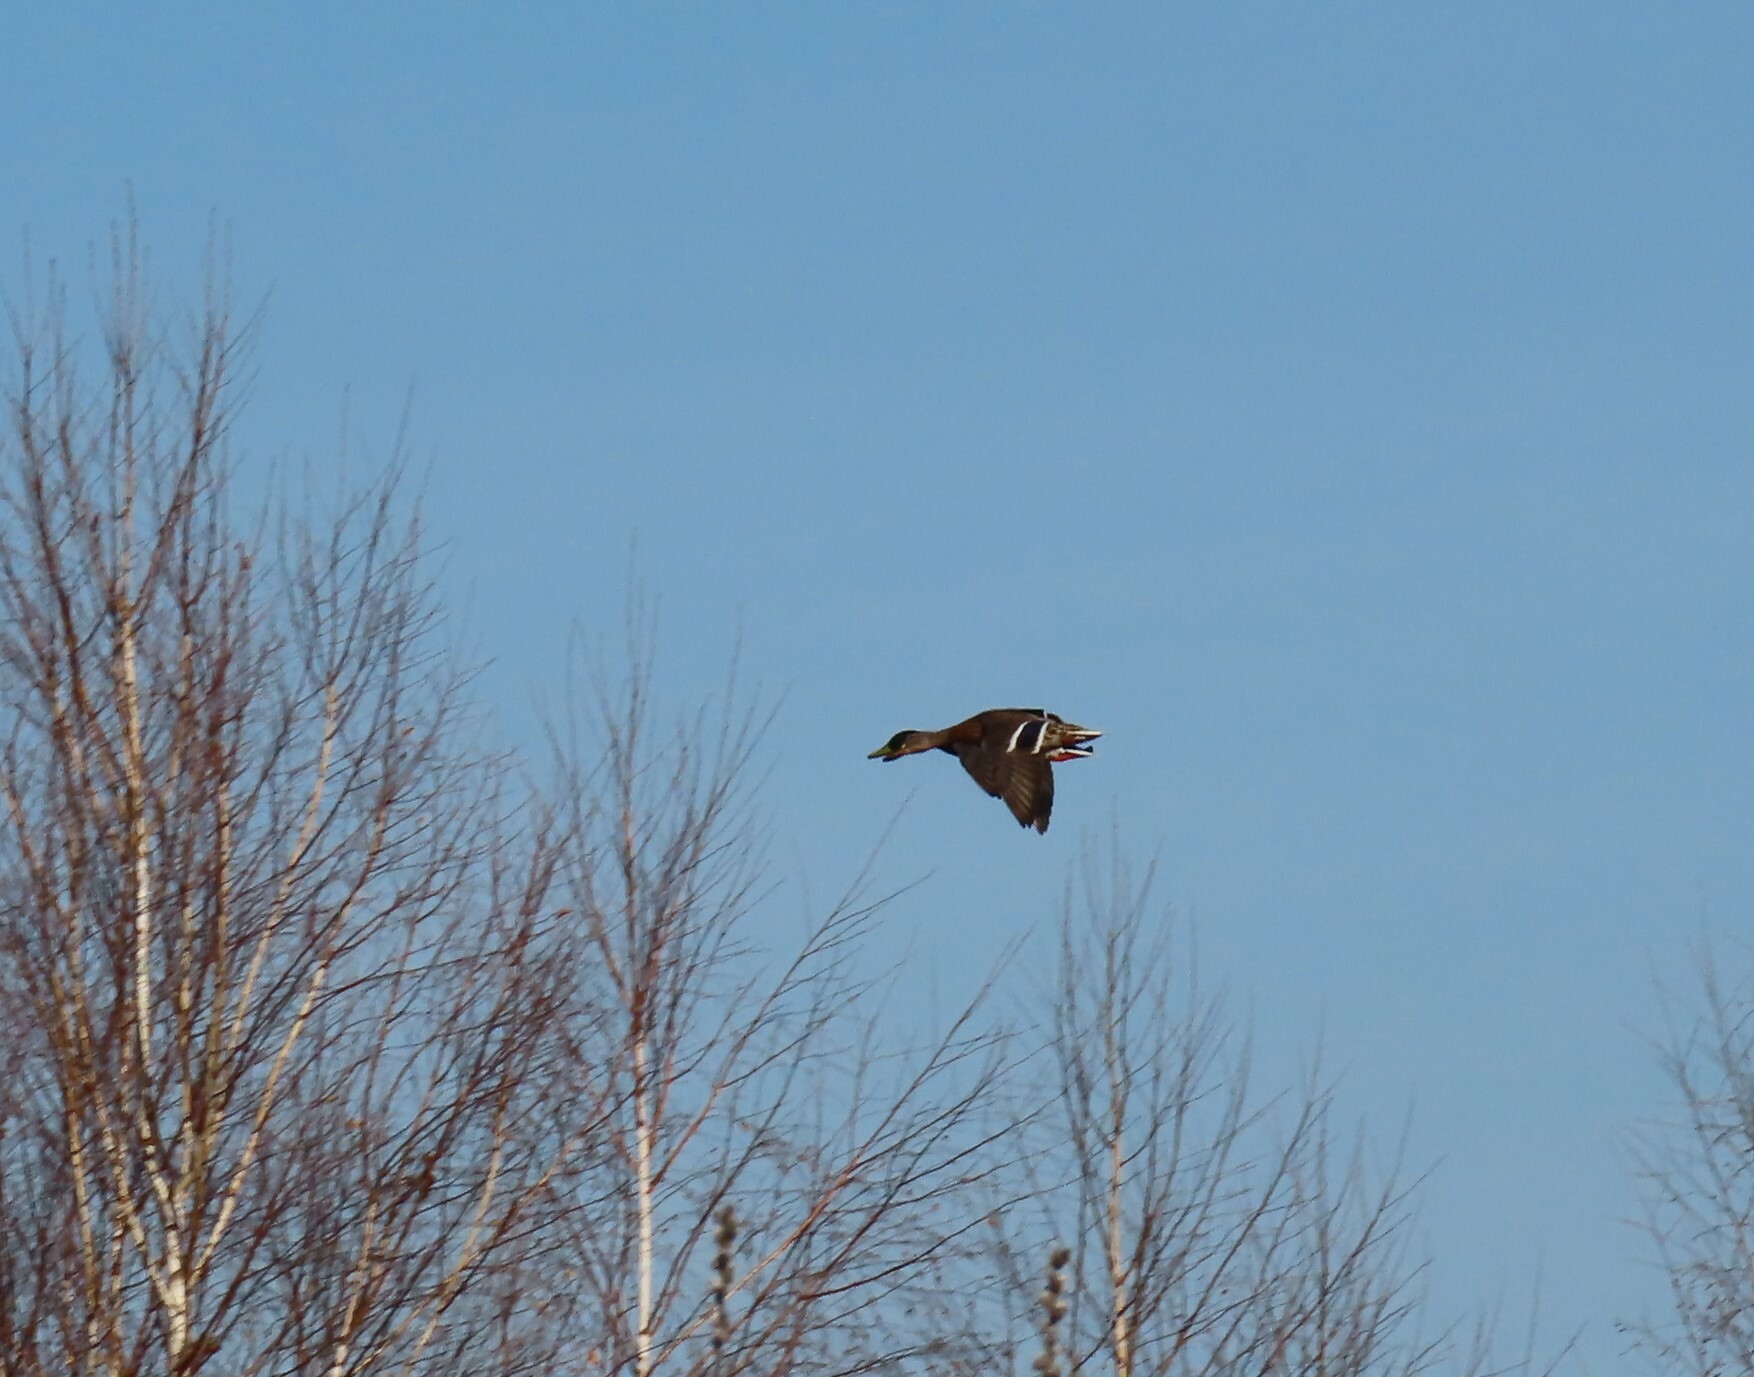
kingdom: Animalia
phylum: Chordata
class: Aves
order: Anseriformes
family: Anatidae
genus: Anas
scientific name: Anas platyrhynchos
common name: Mallard
